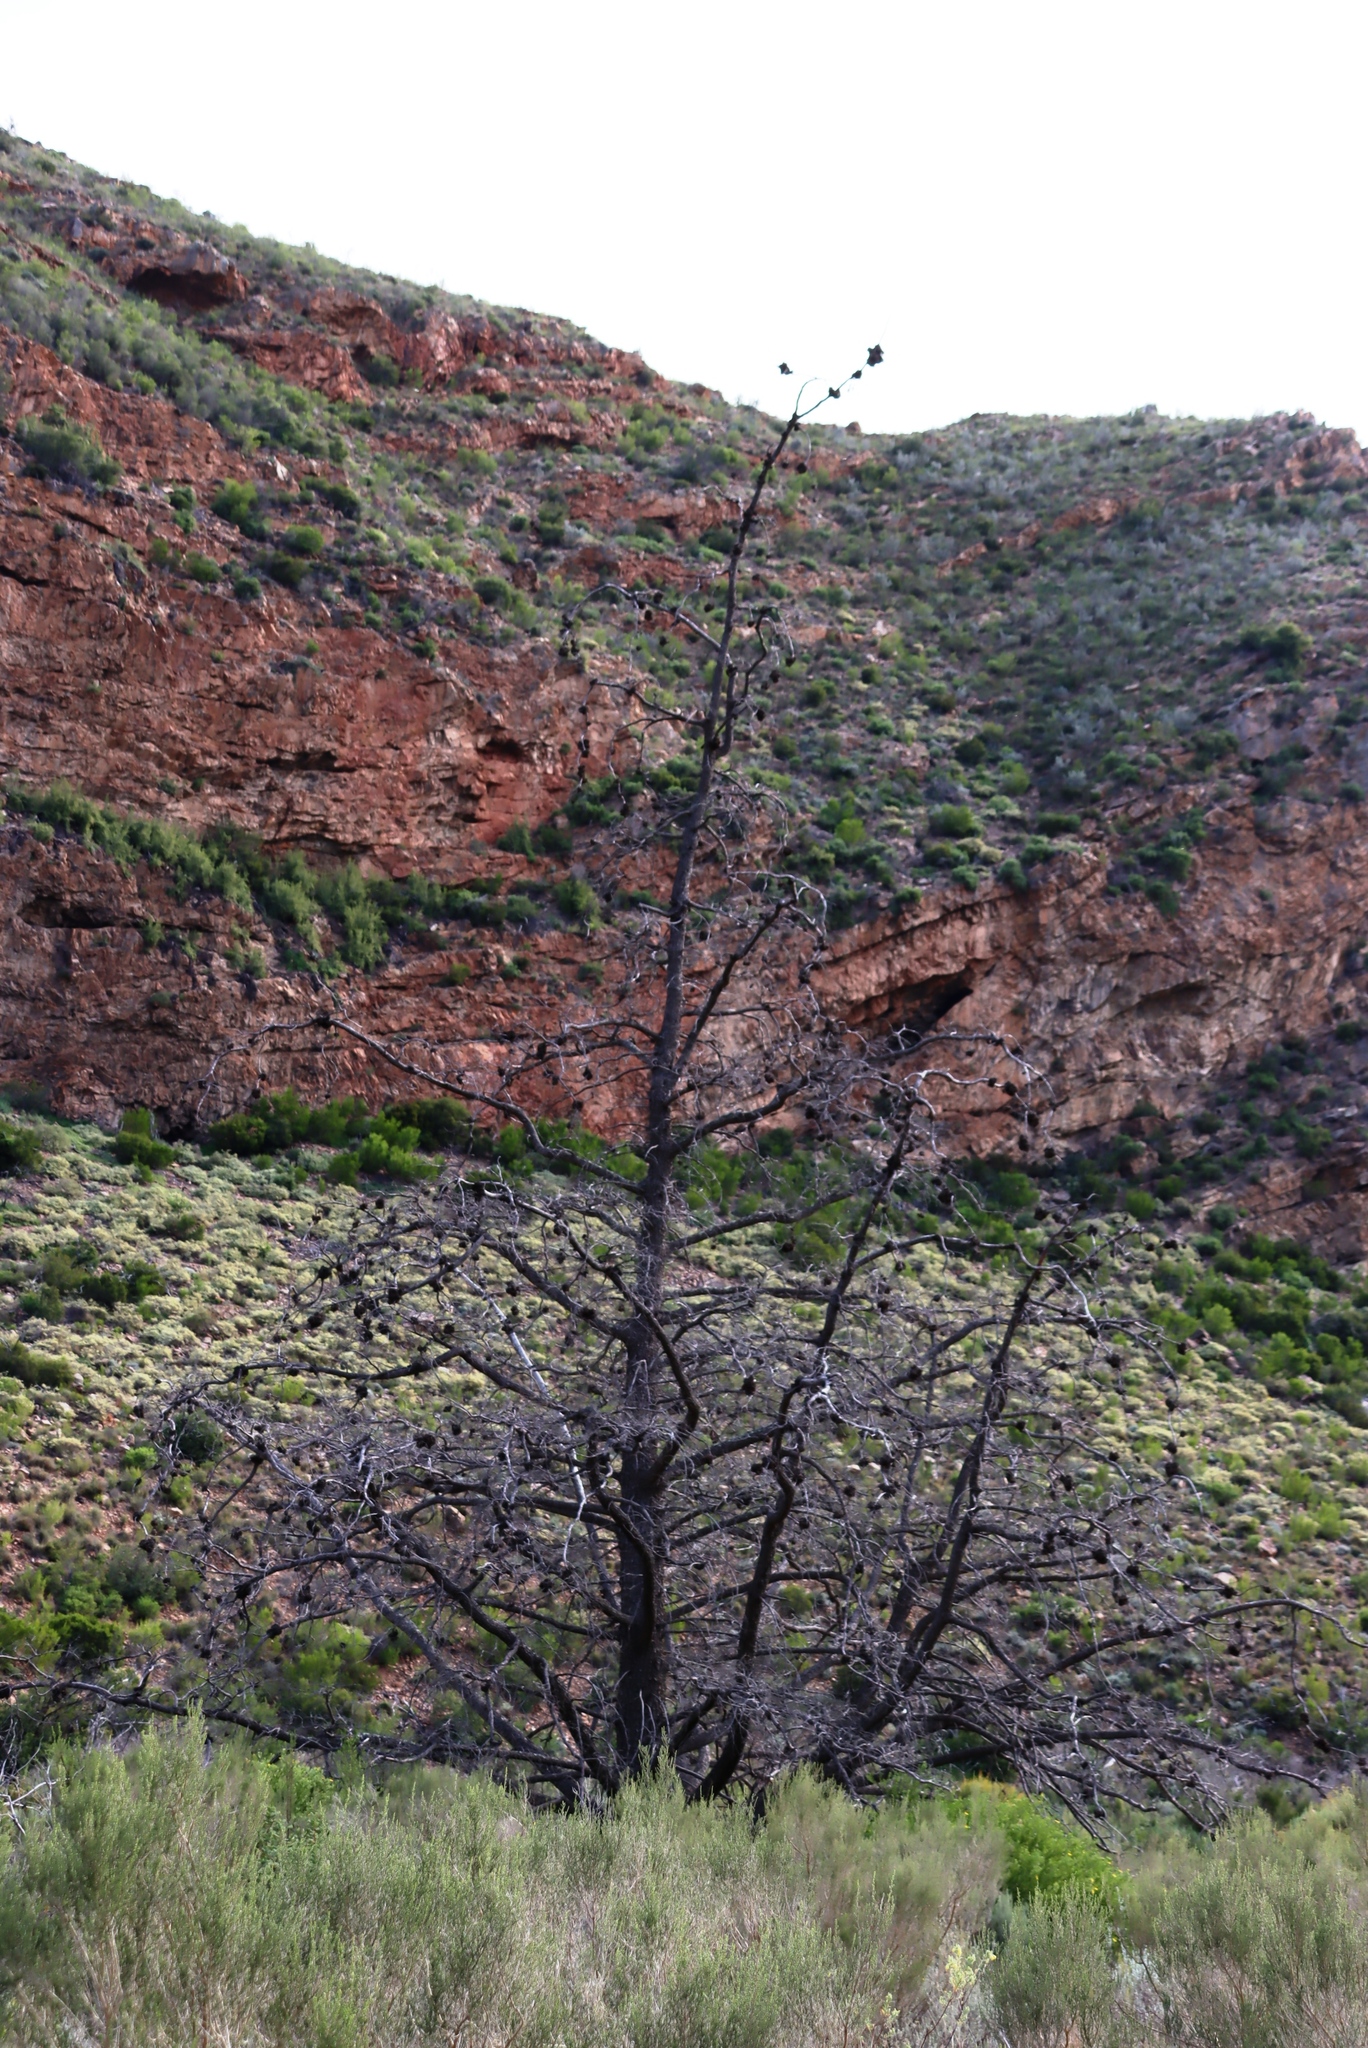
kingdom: Plantae
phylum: Tracheophyta
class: Pinopsida
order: Pinales
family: Cupressaceae
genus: Widdringtonia
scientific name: Widdringtonia schwarzii
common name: Baviaans cedar
